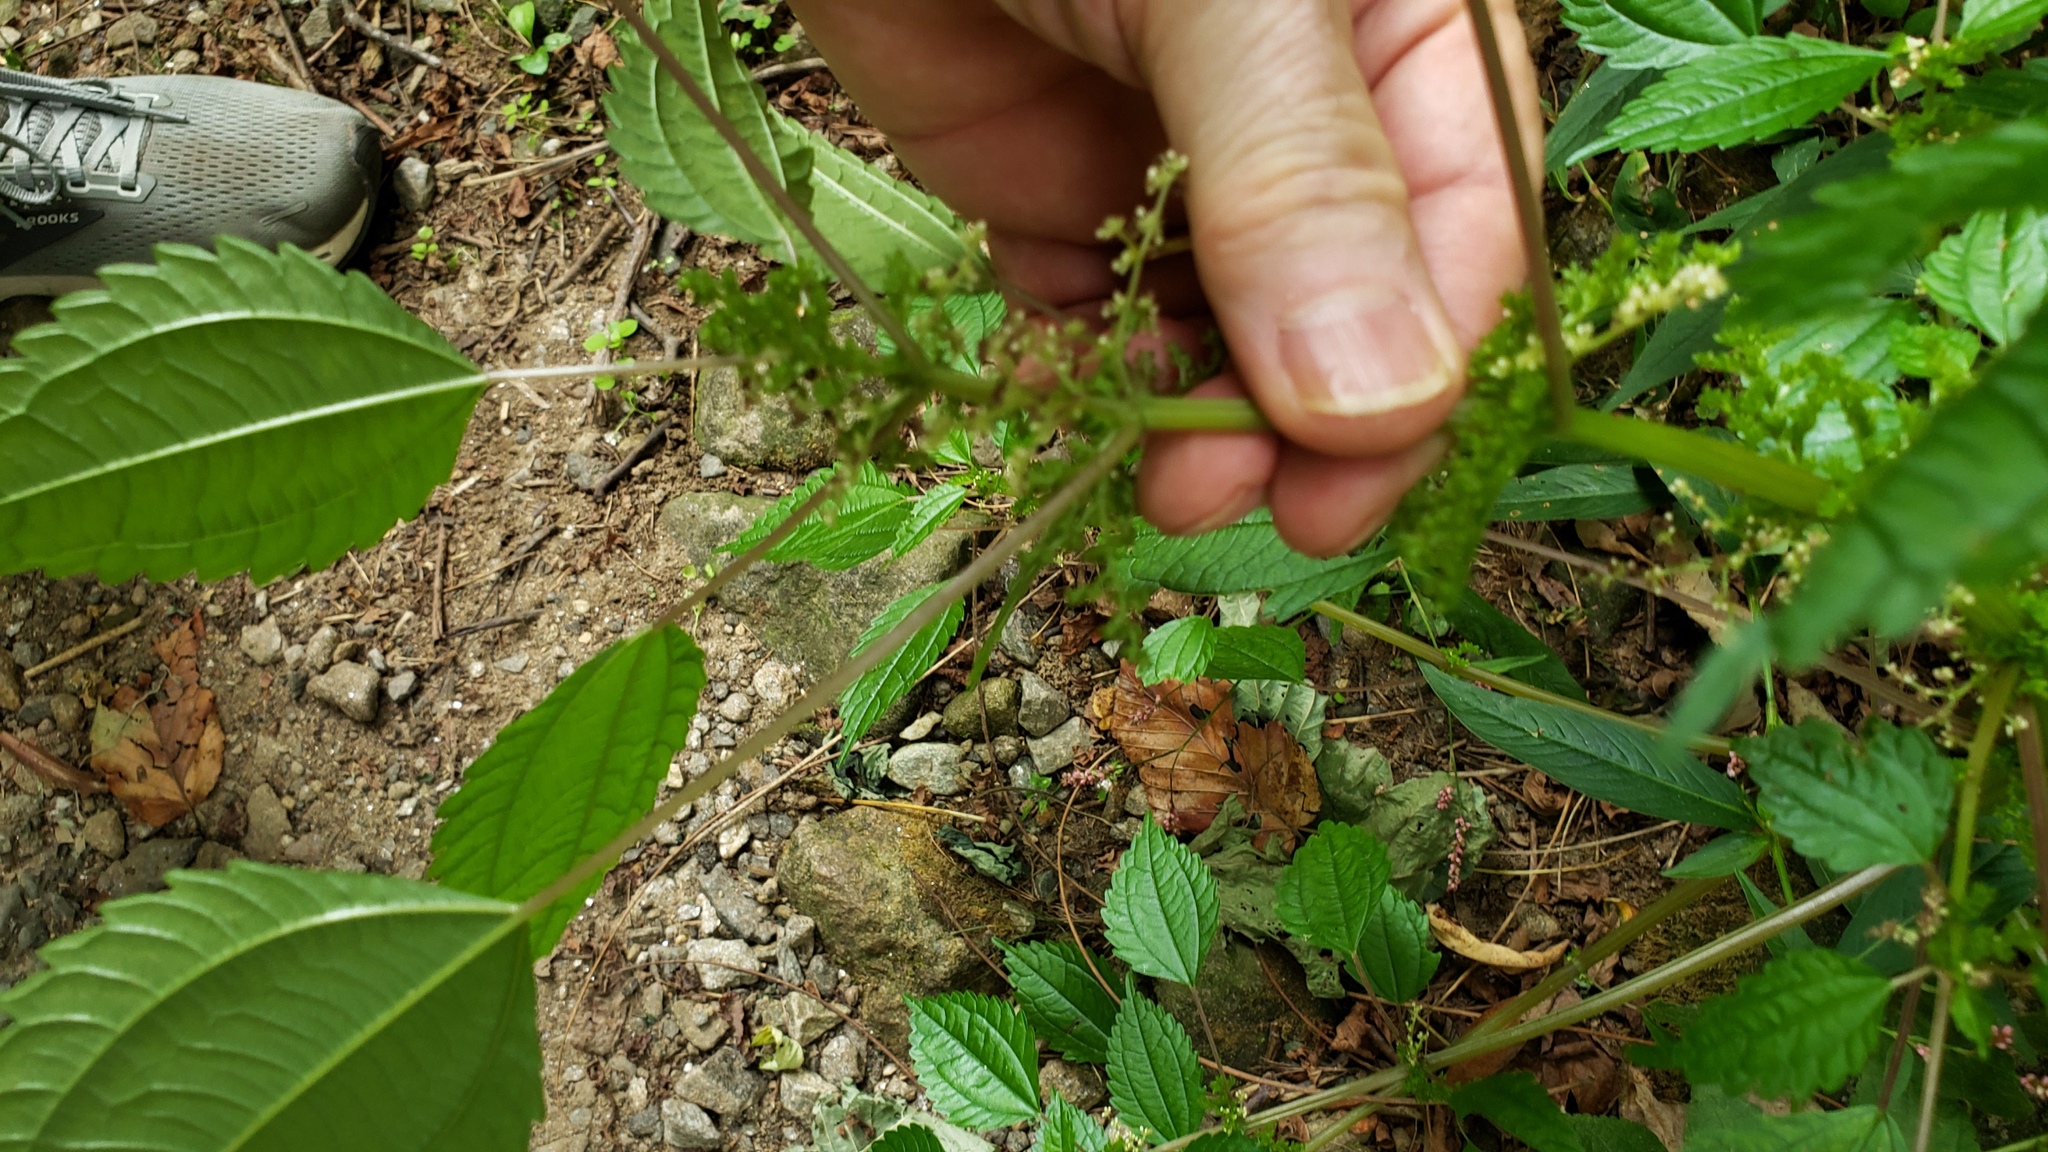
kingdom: Plantae
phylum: Tracheophyta
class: Magnoliopsida
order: Rosales
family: Urticaceae
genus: Pilea
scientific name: Pilea pumila
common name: Clearweed
